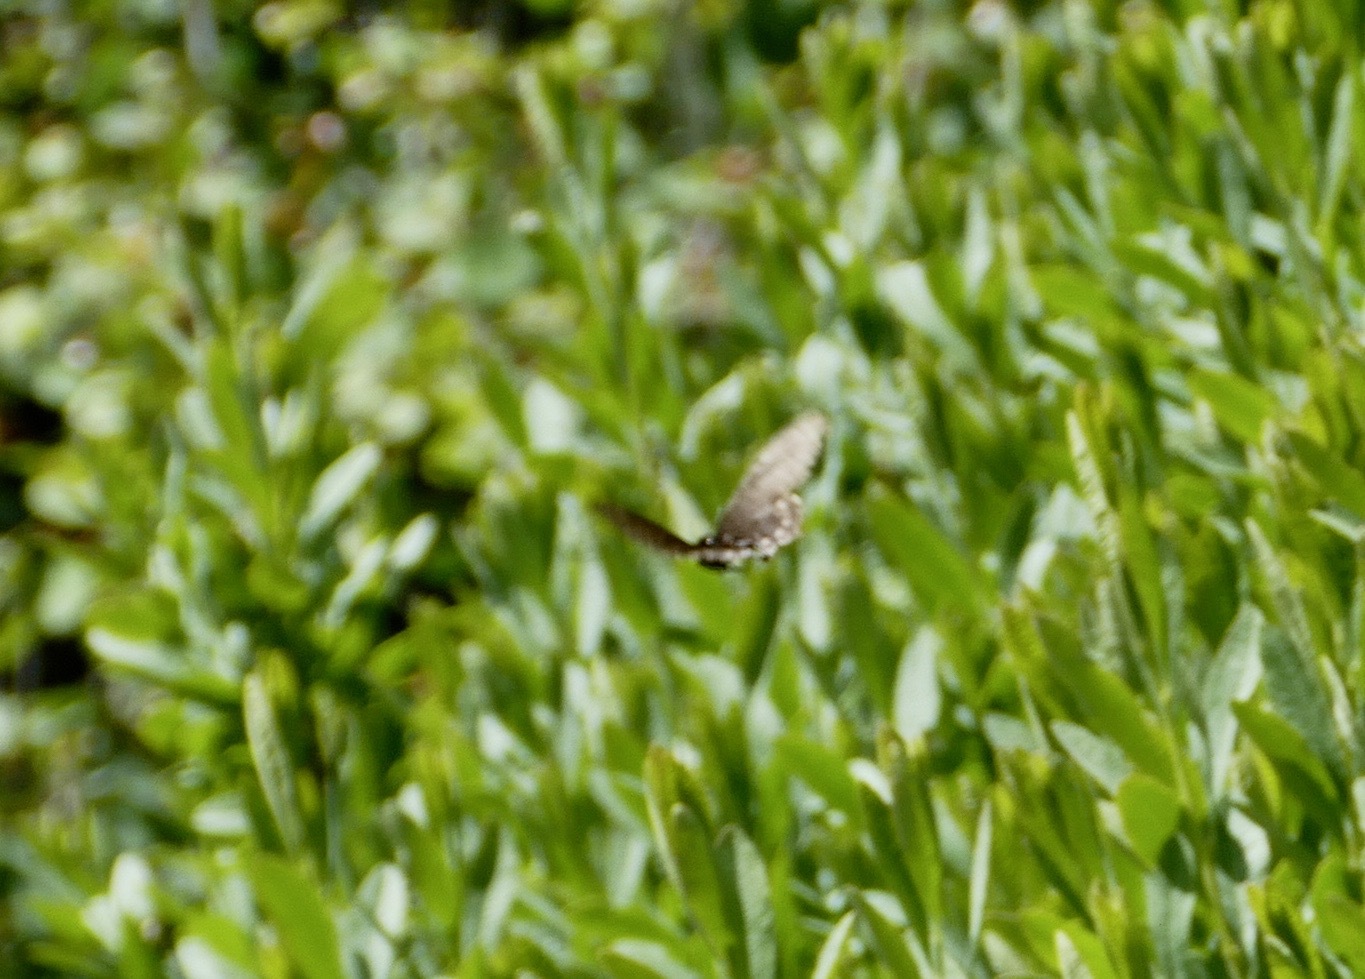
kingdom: Animalia
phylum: Arthropoda
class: Insecta
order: Lepidoptera
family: Papilionidae
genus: Battus
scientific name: Battus philenor
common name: Pipevine swallowtail
